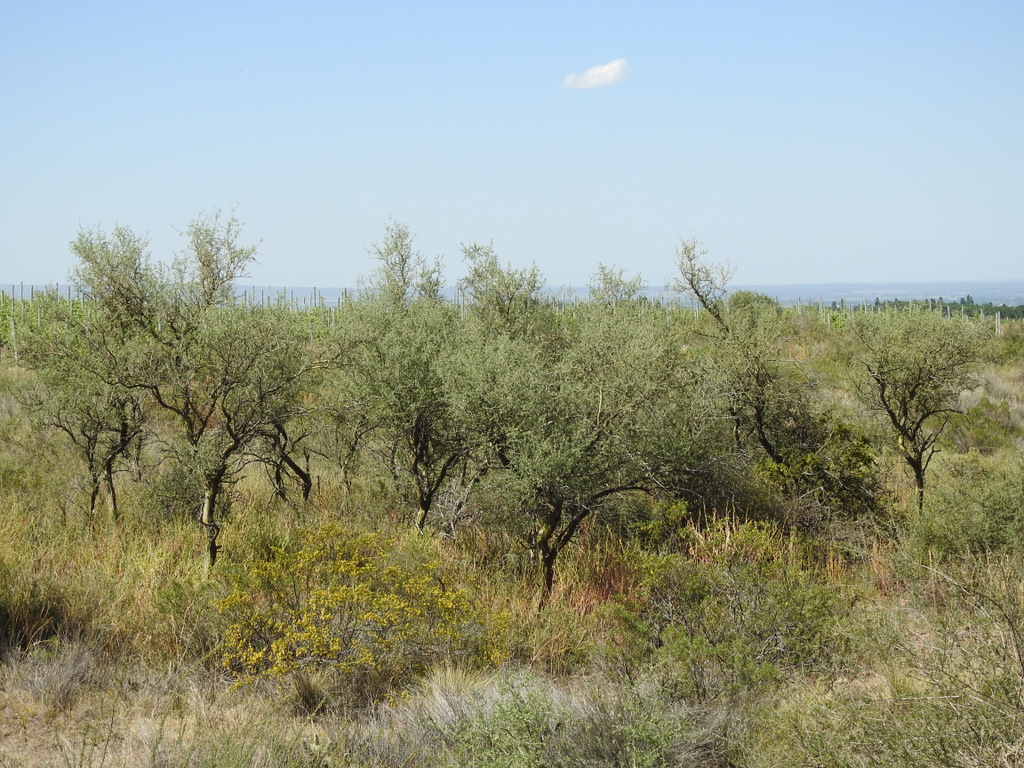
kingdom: Plantae
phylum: Tracheophyta
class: Magnoliopsida
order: Fabales
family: Fabaceae
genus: Geoffroea
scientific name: Geoffroea decorticans
